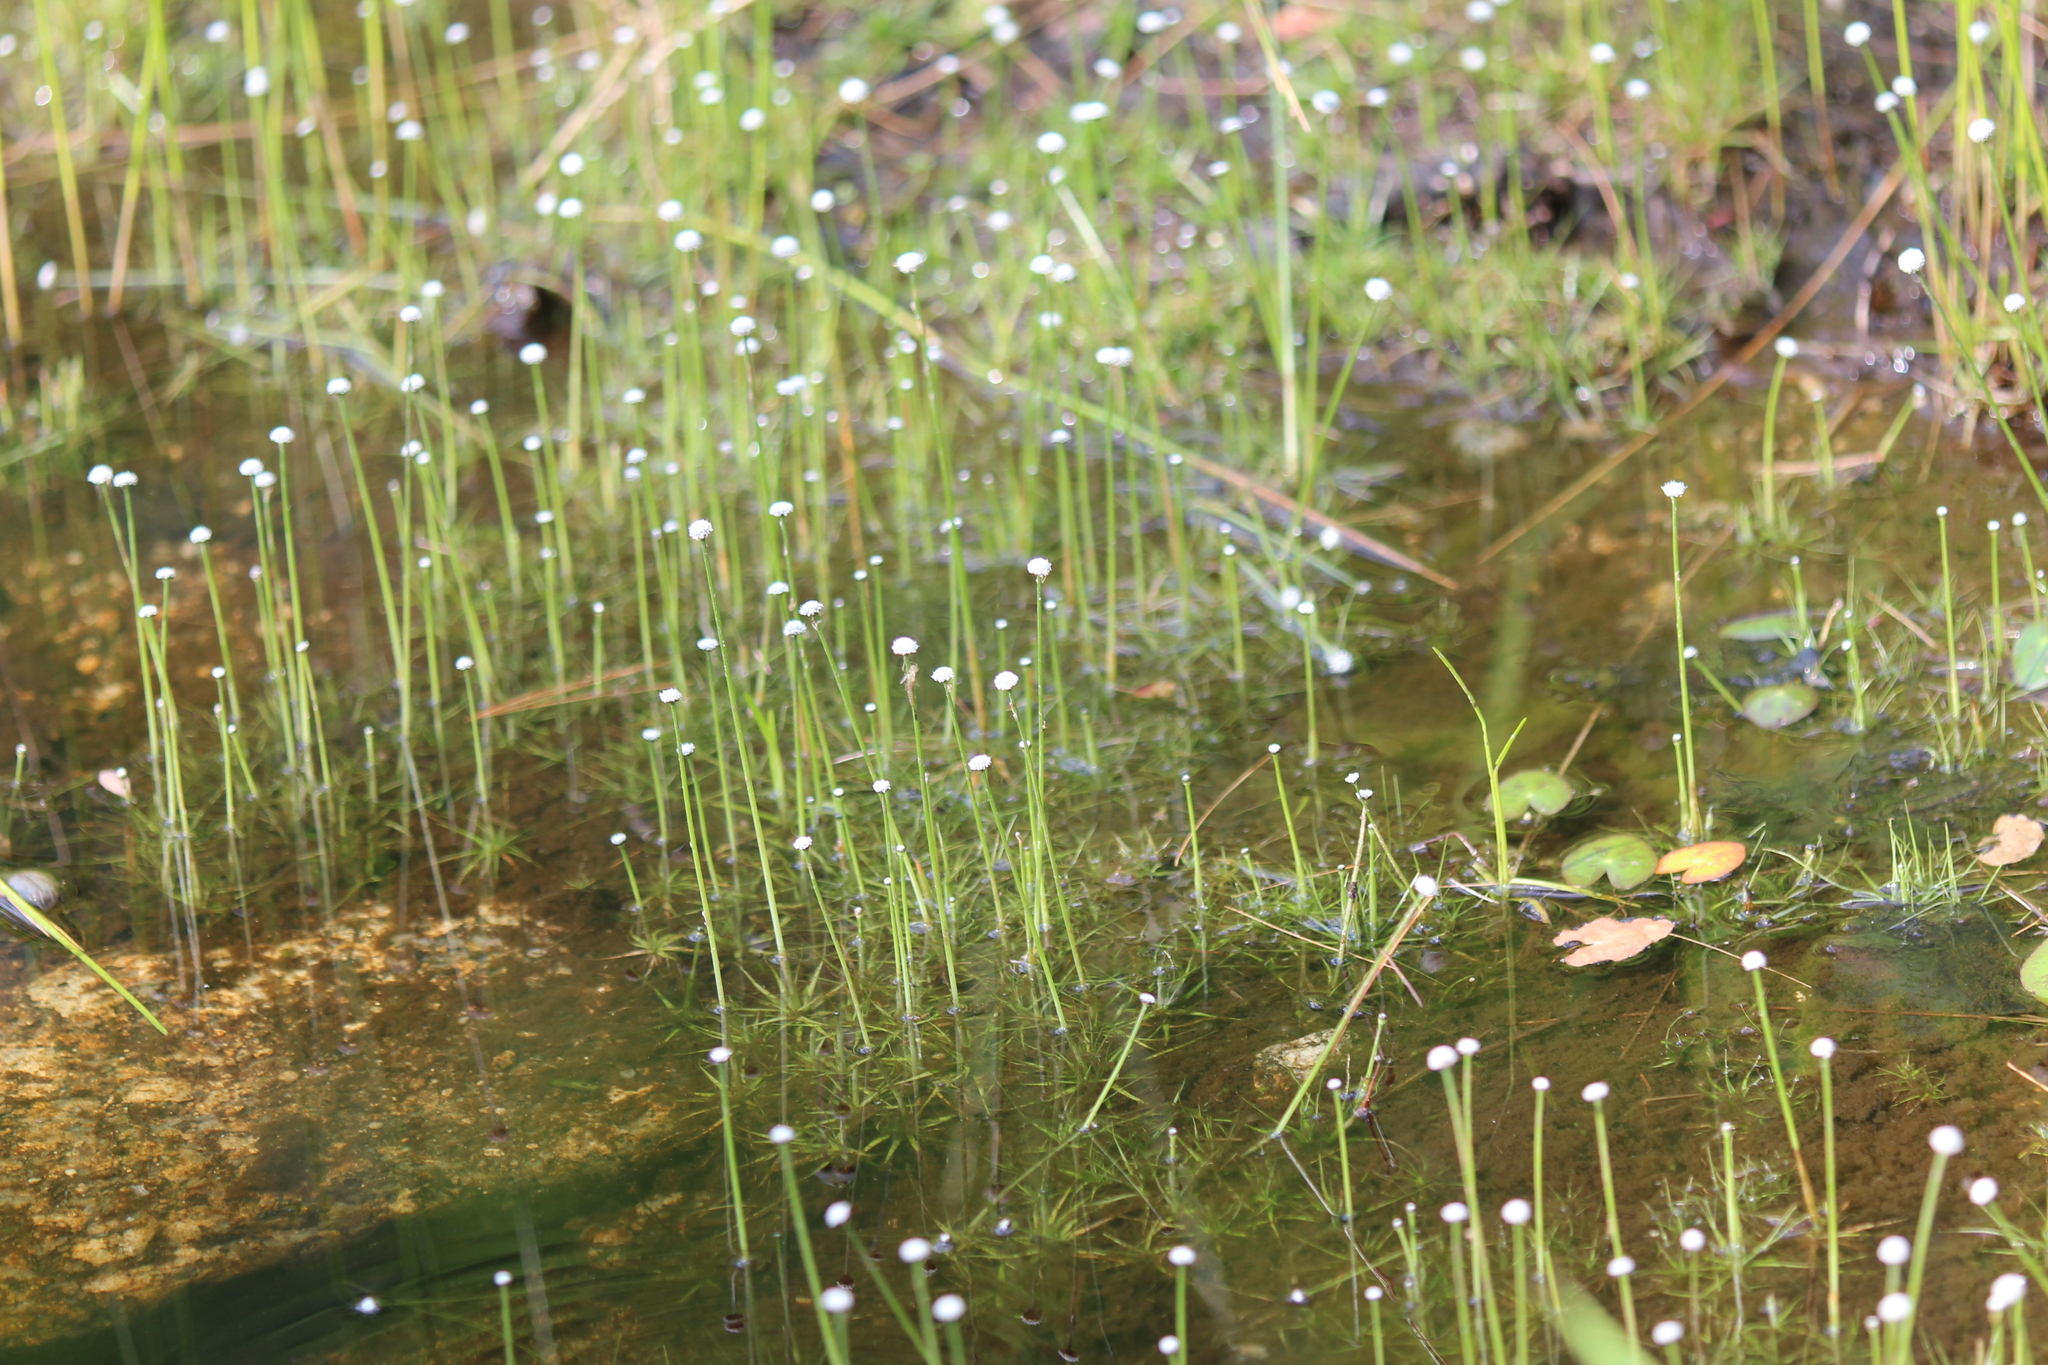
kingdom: Plantae
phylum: Tracheophyta
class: Liliopsida
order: Poales
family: Eriocaulaceae
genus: Eriocaulon
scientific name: Eriocaulon aquaticum
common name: Pipewort
